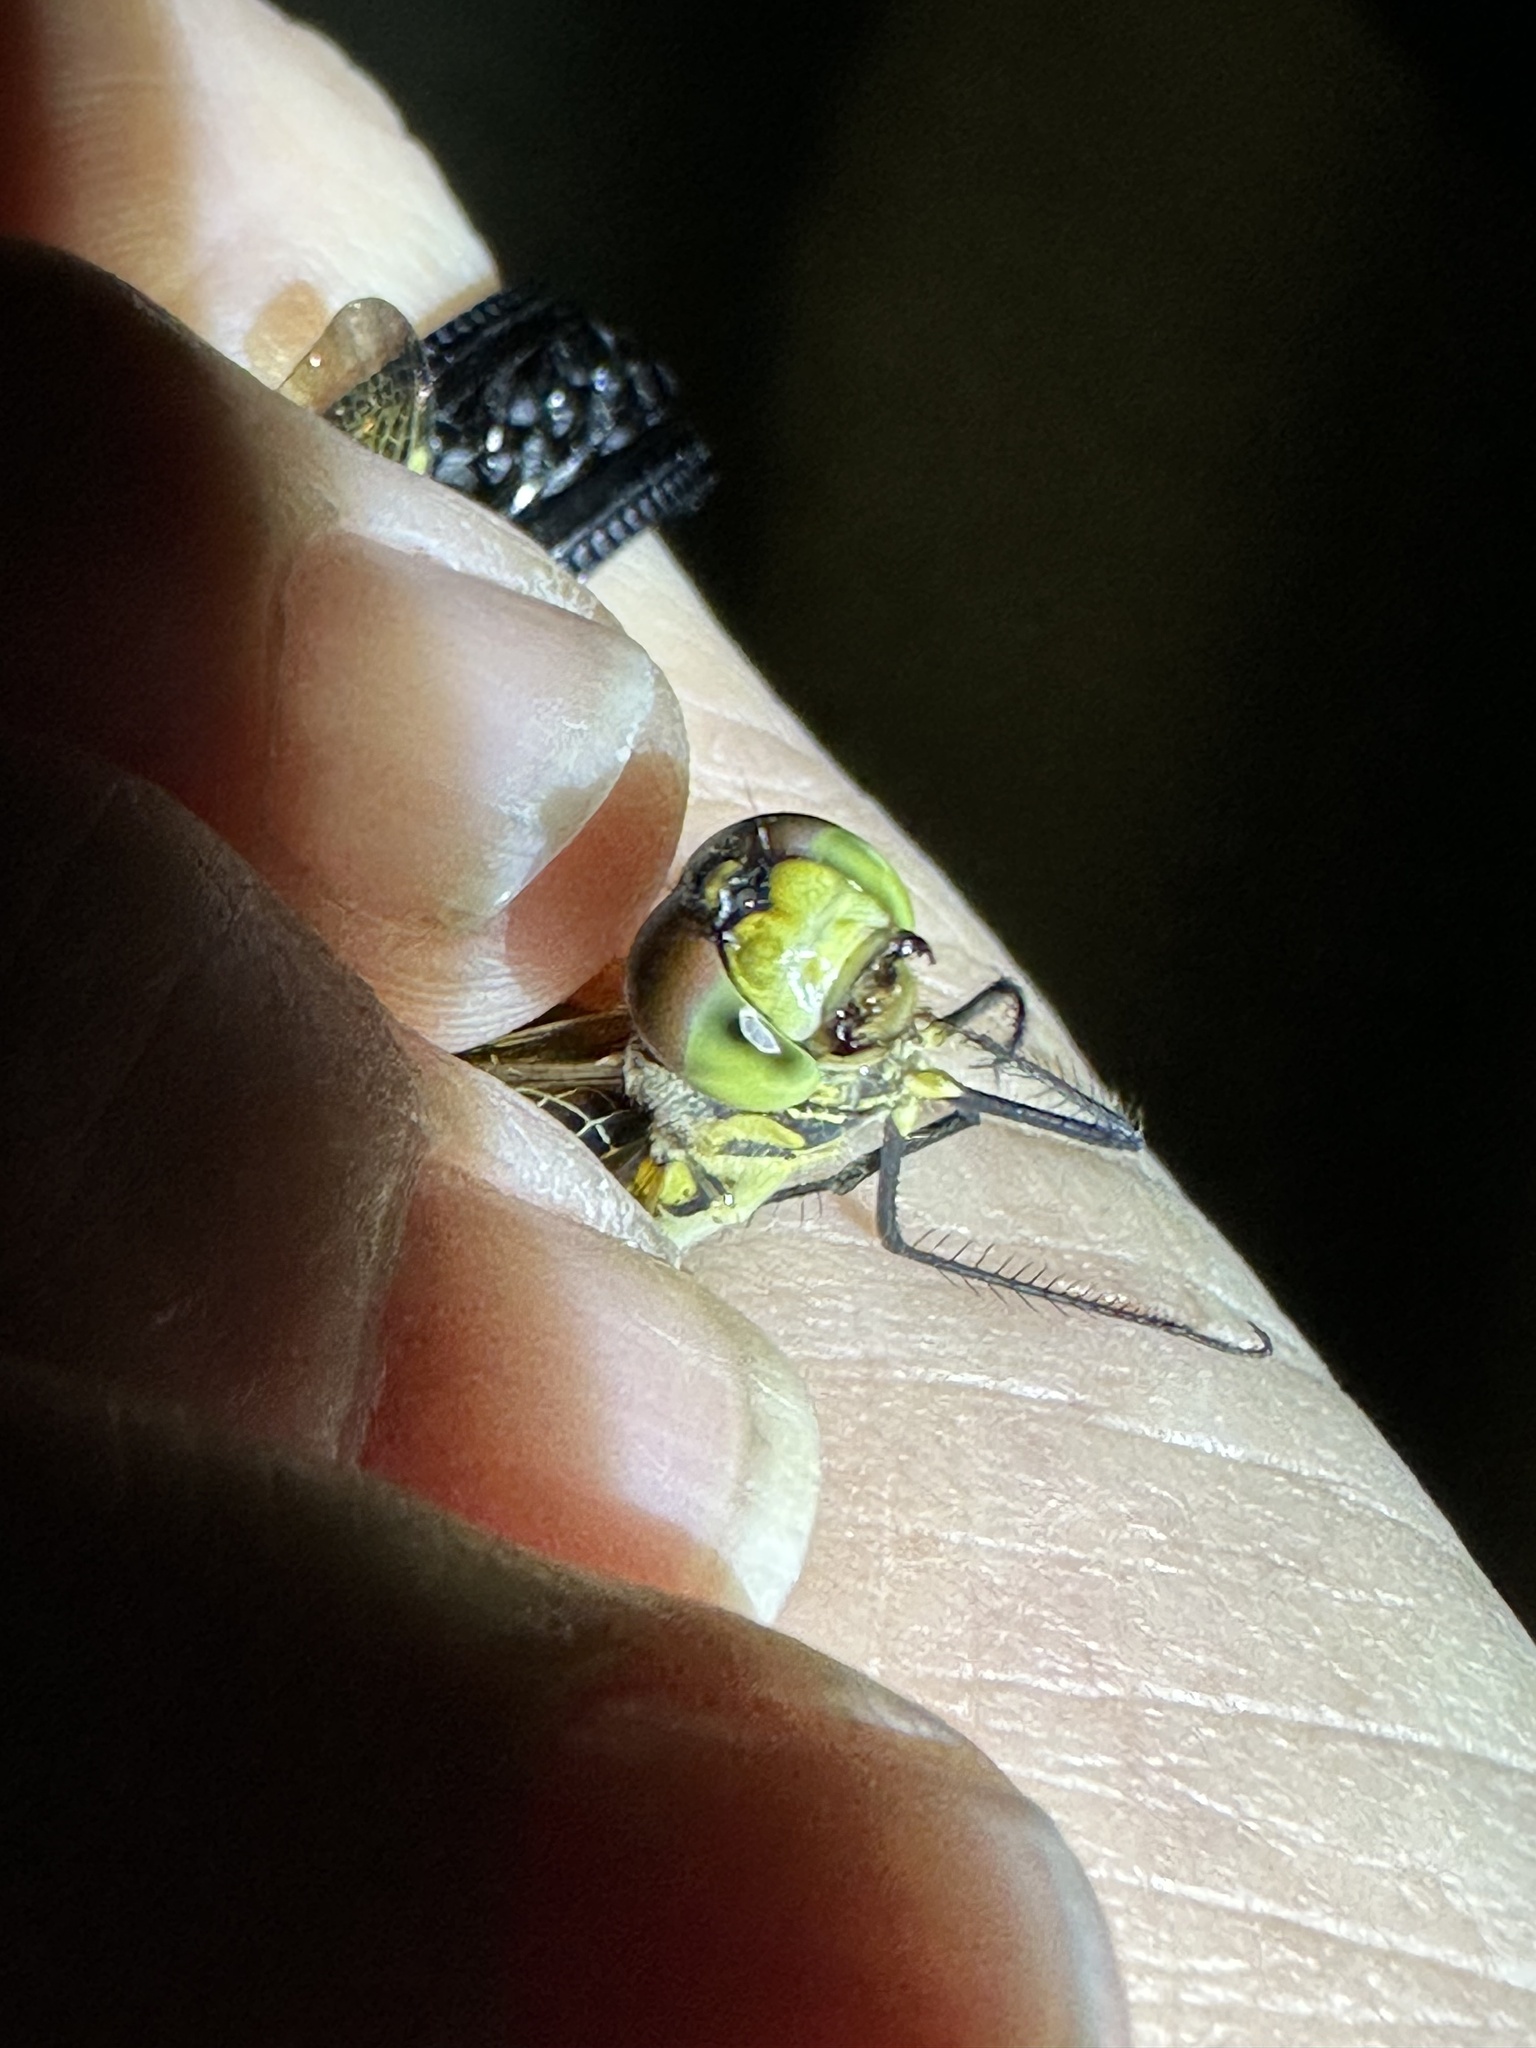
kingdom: Animalia
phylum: Arthropoda
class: Insecta
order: Odonata
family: Libellulidae
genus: Celithemis
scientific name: Celithemis eponina
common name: Halloween pennant
